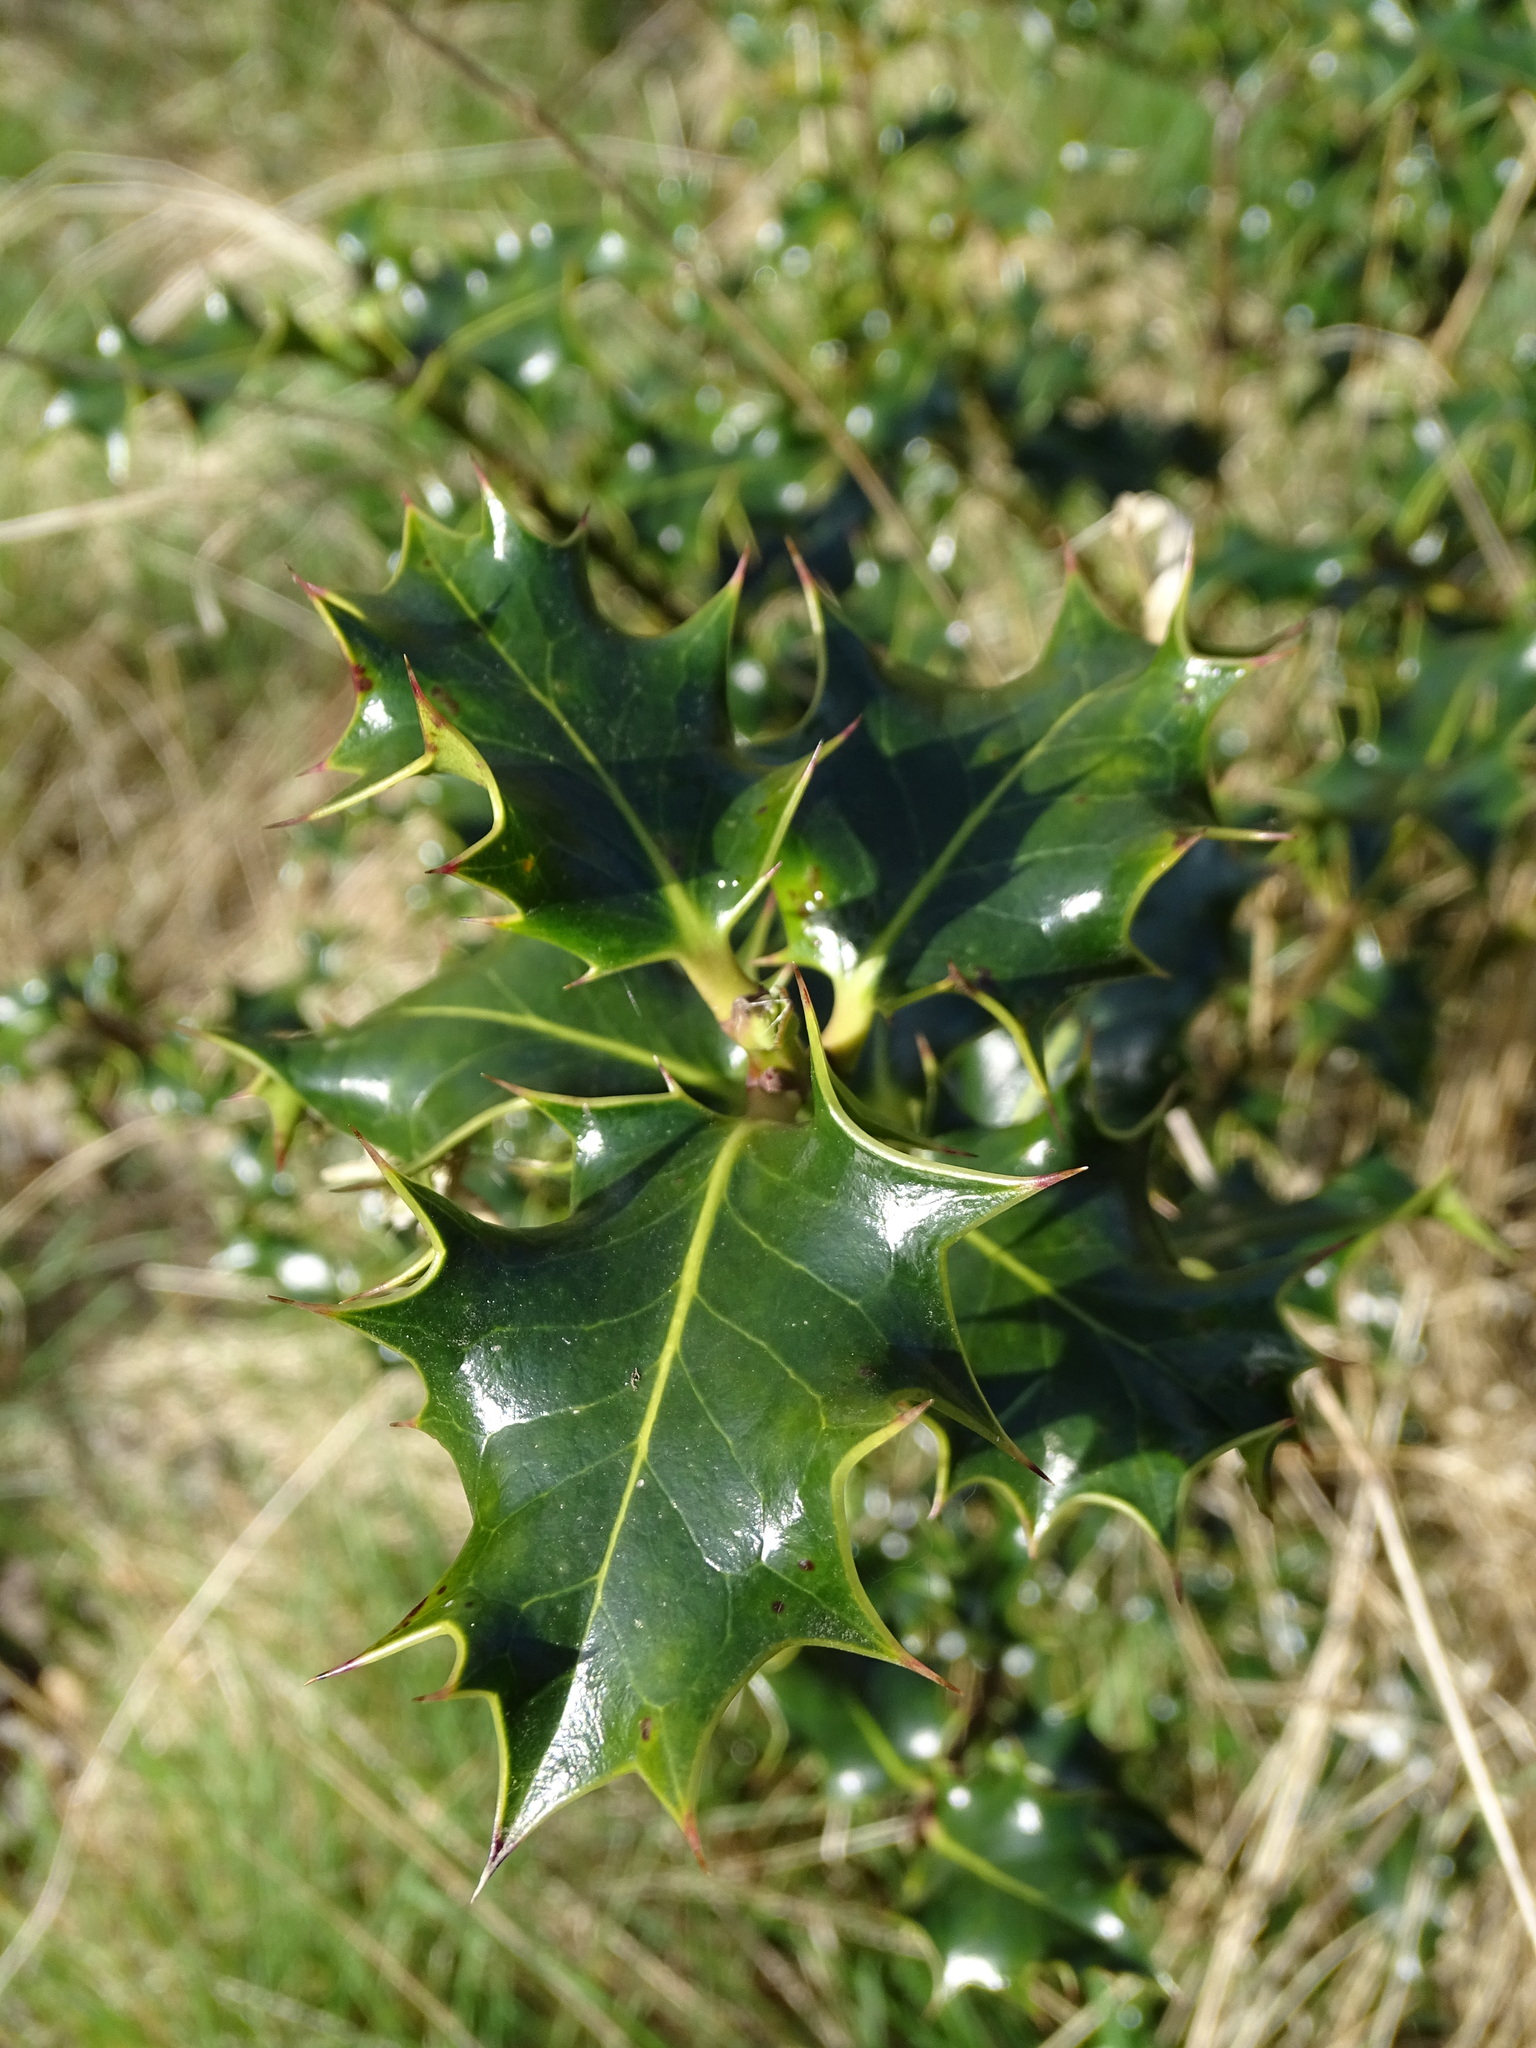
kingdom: Plantae
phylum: Tracheophyta
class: Magnoliopsida
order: Aquifoliales
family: Aquifoliaceae
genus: Ilex
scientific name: Ilex aquifolium
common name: English holly
